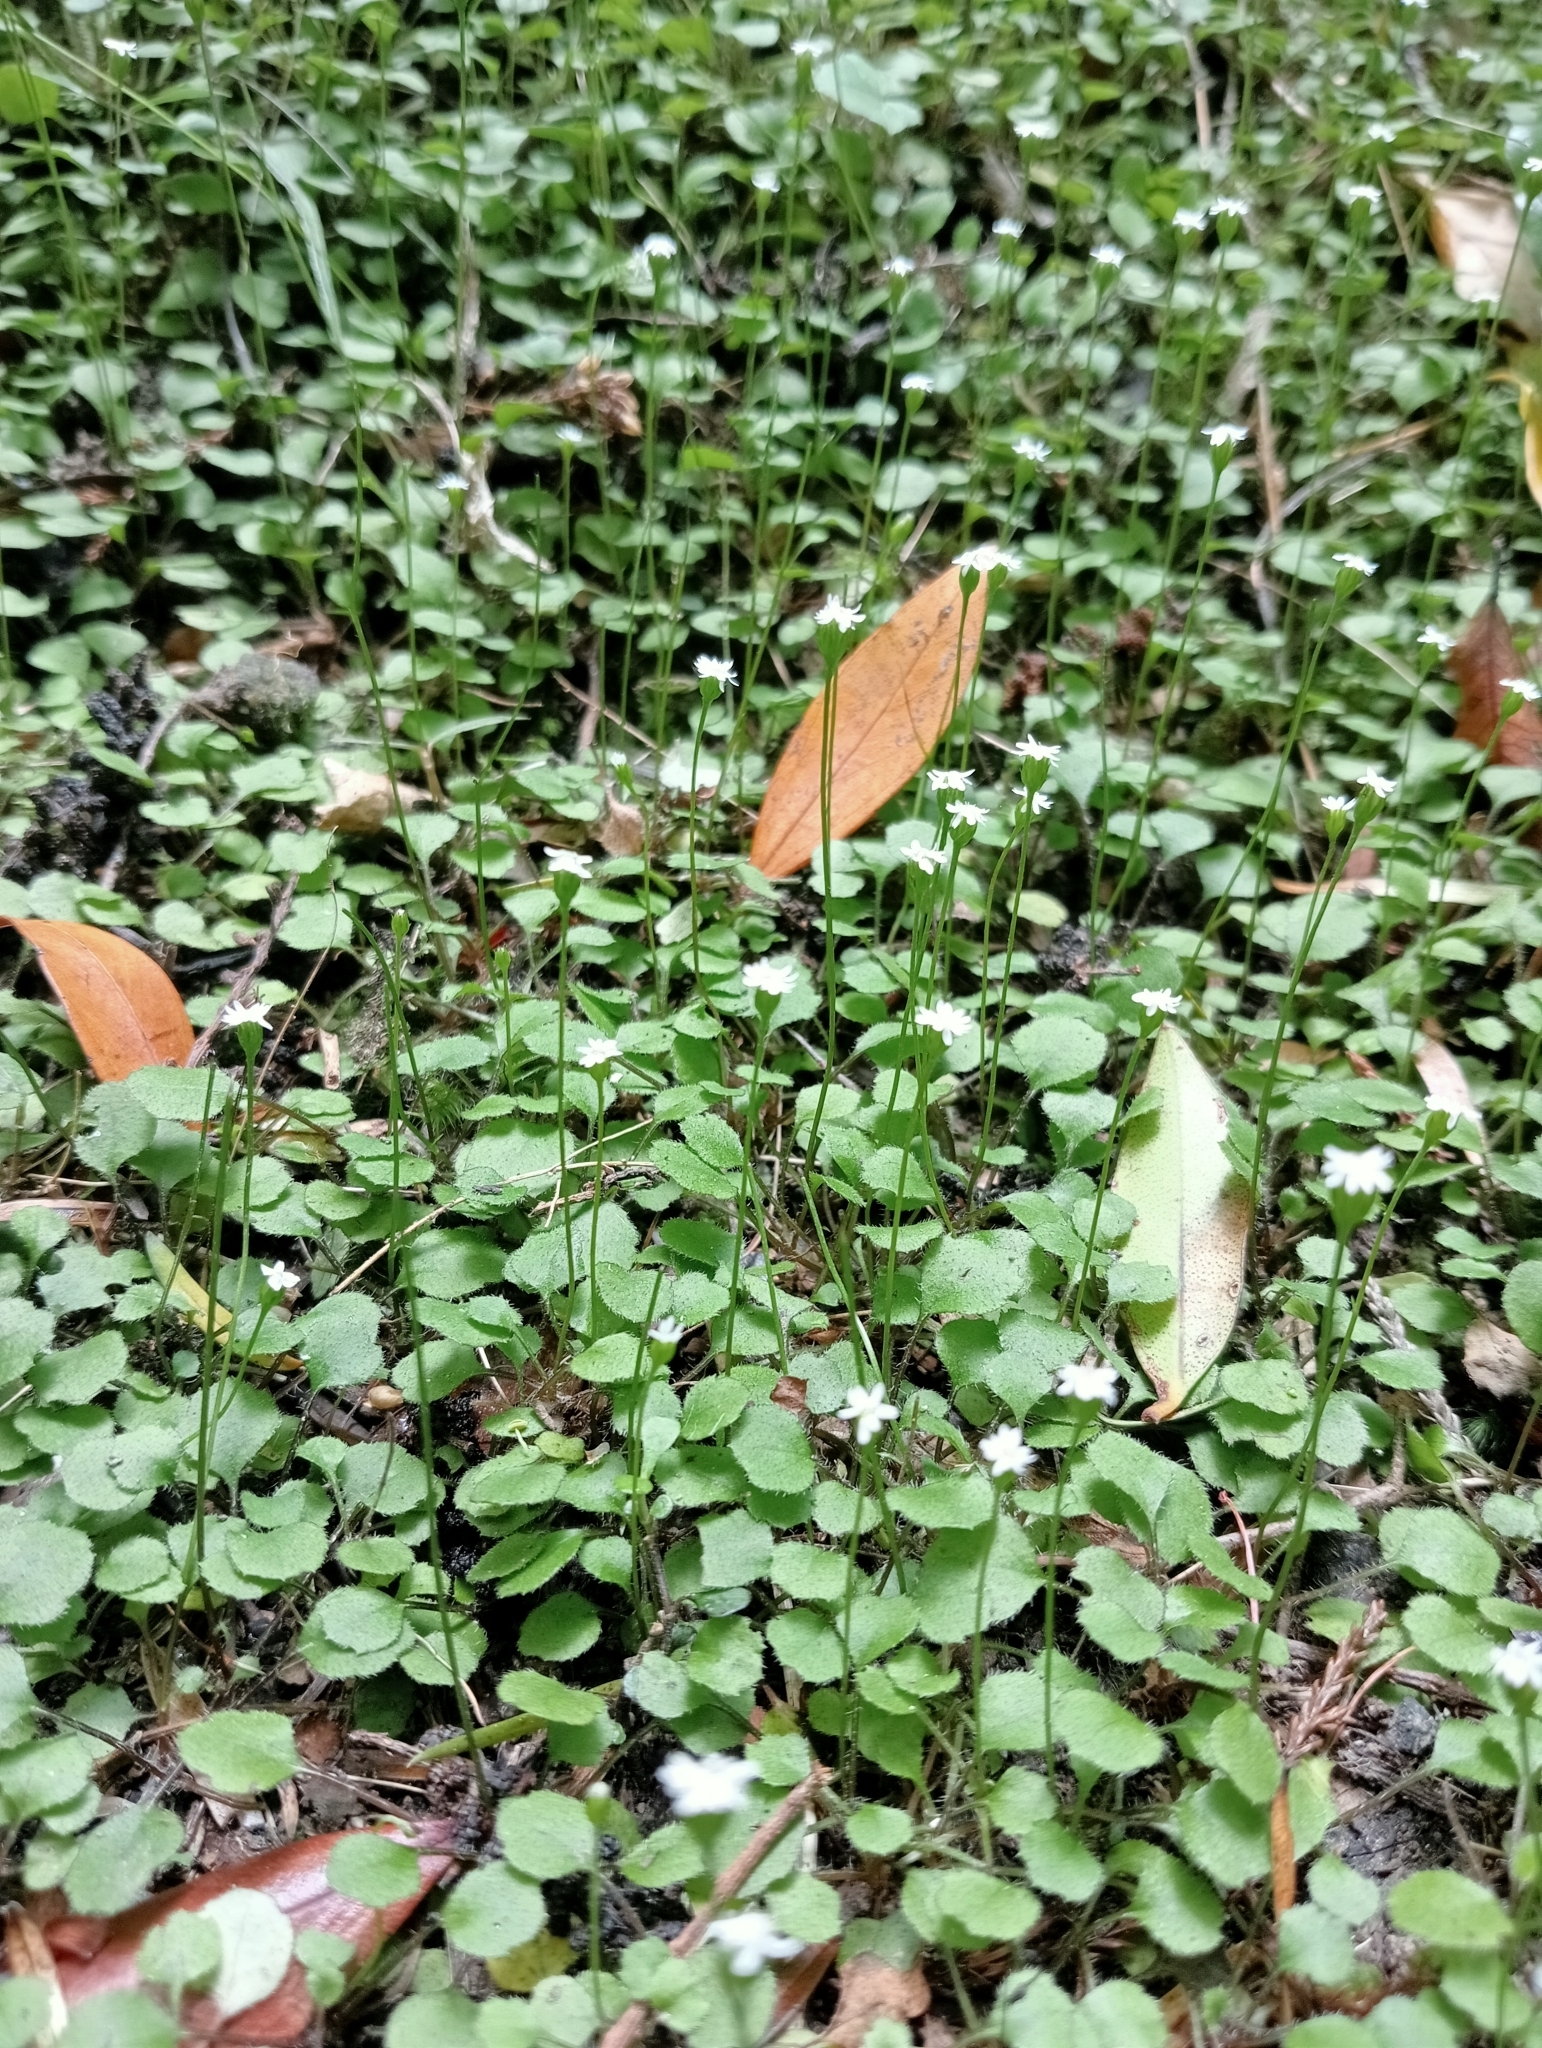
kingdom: Plantae
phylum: Tracheophyta
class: Magnoliopsida
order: Asterales
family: Asteraceae
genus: Lagenophora
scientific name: Lagenophora strangulata
